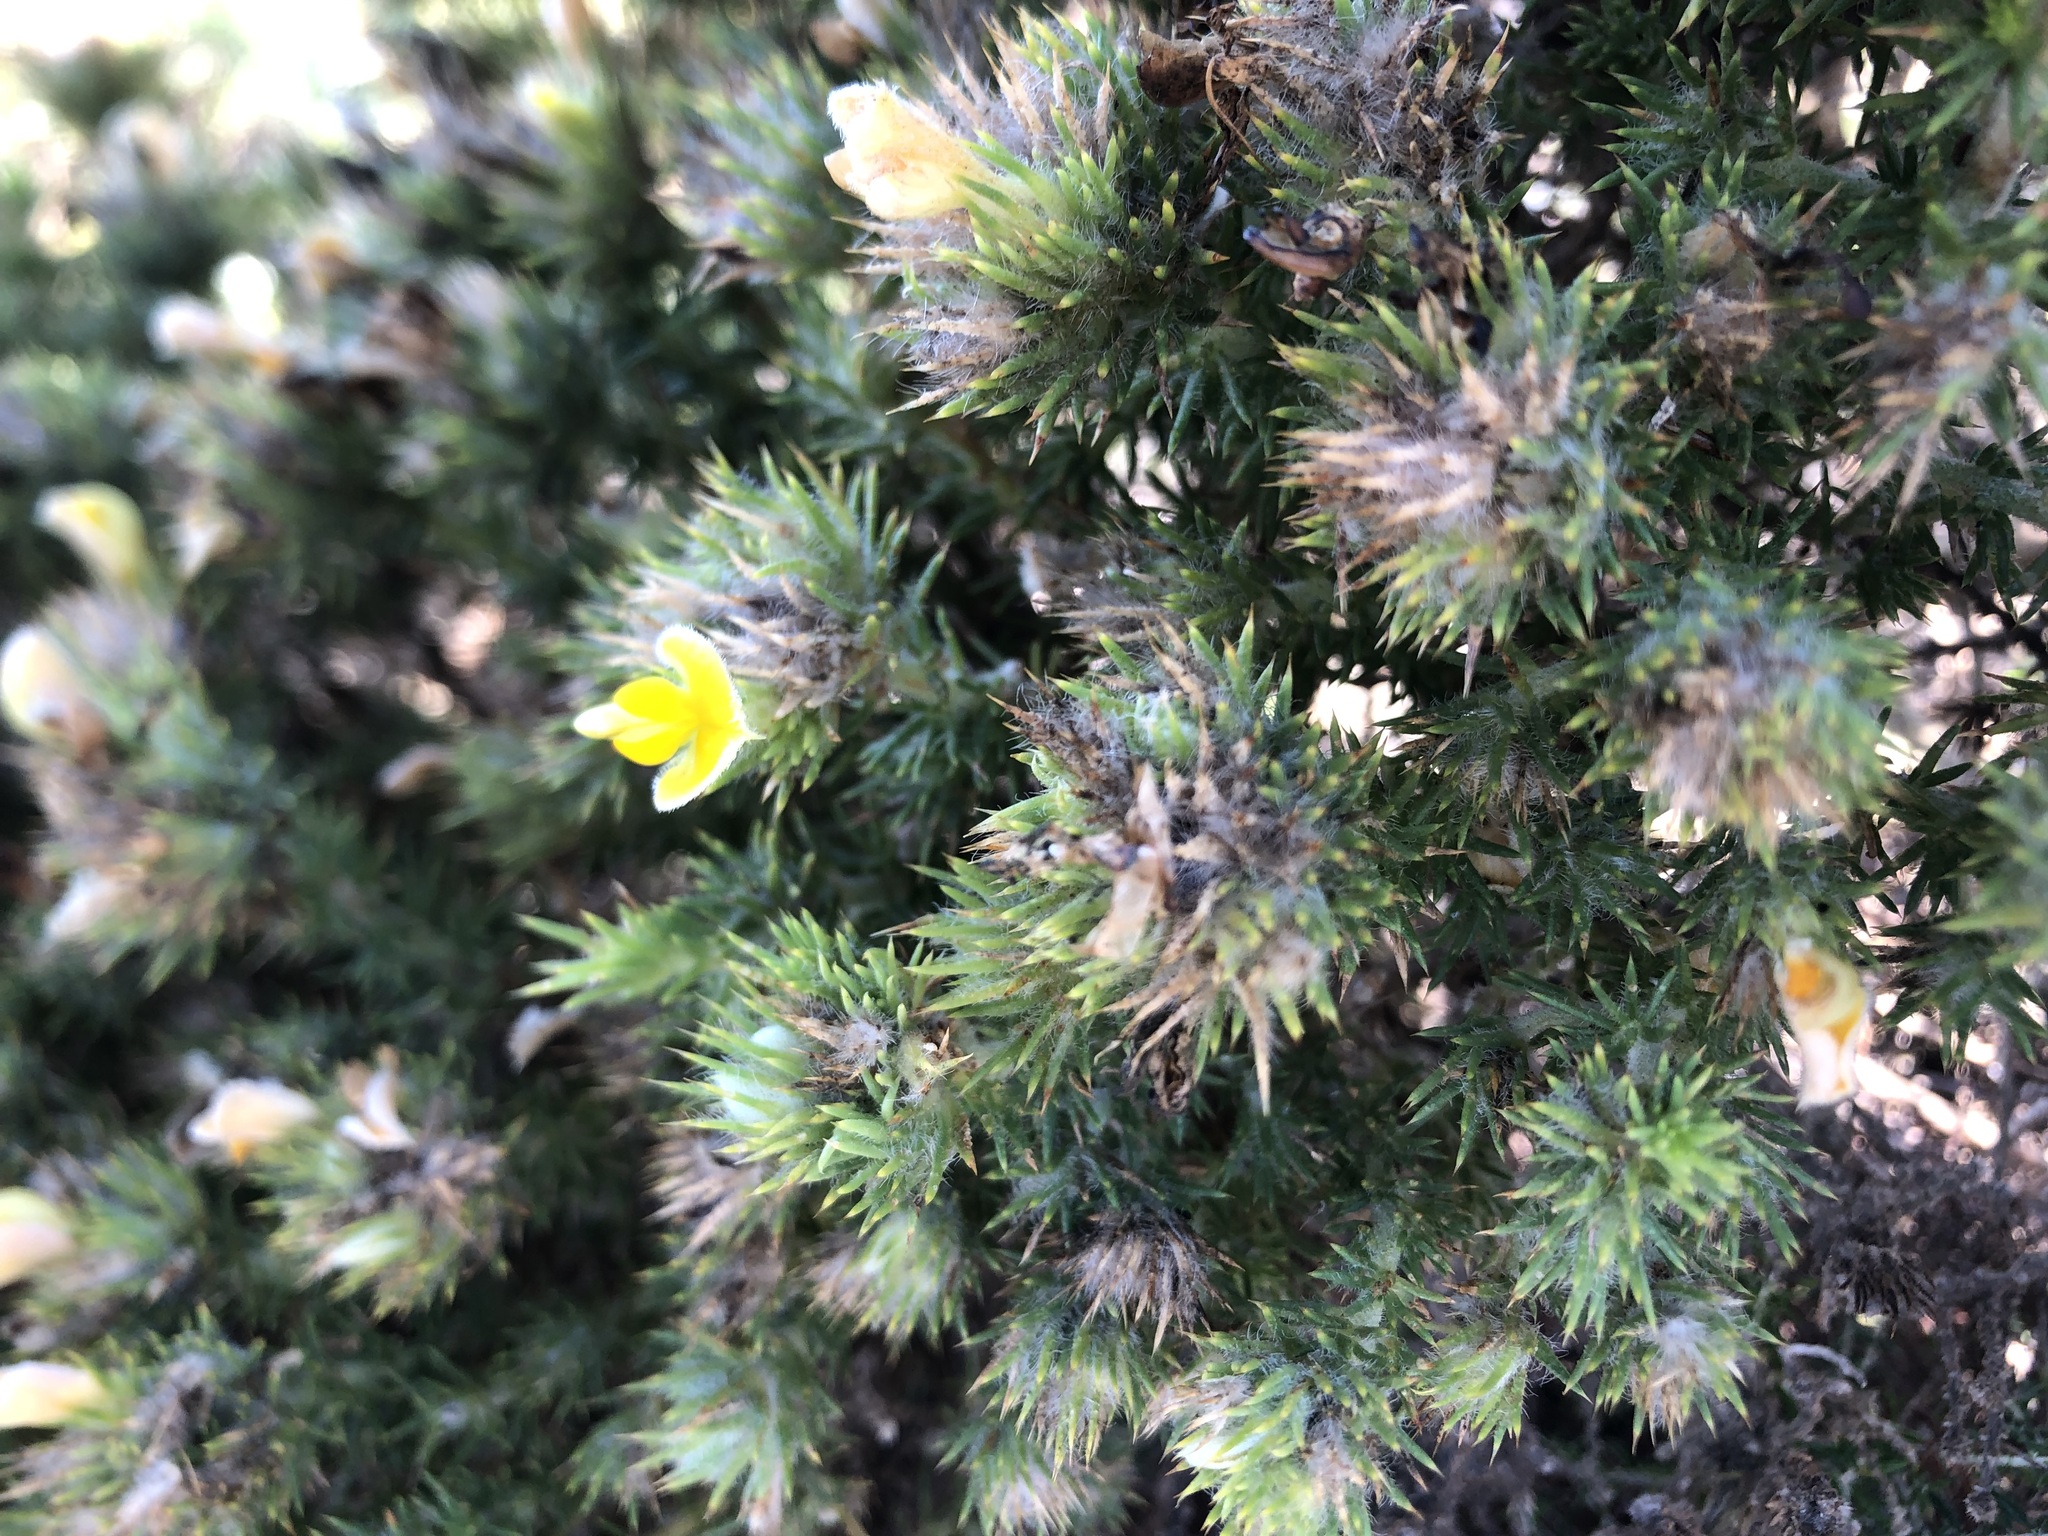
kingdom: Plantae
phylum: Tracheophyta
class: Magnoliopsida
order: Fabales
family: Fabaceae
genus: Aspalathus
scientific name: Aspalathus chenopoda
